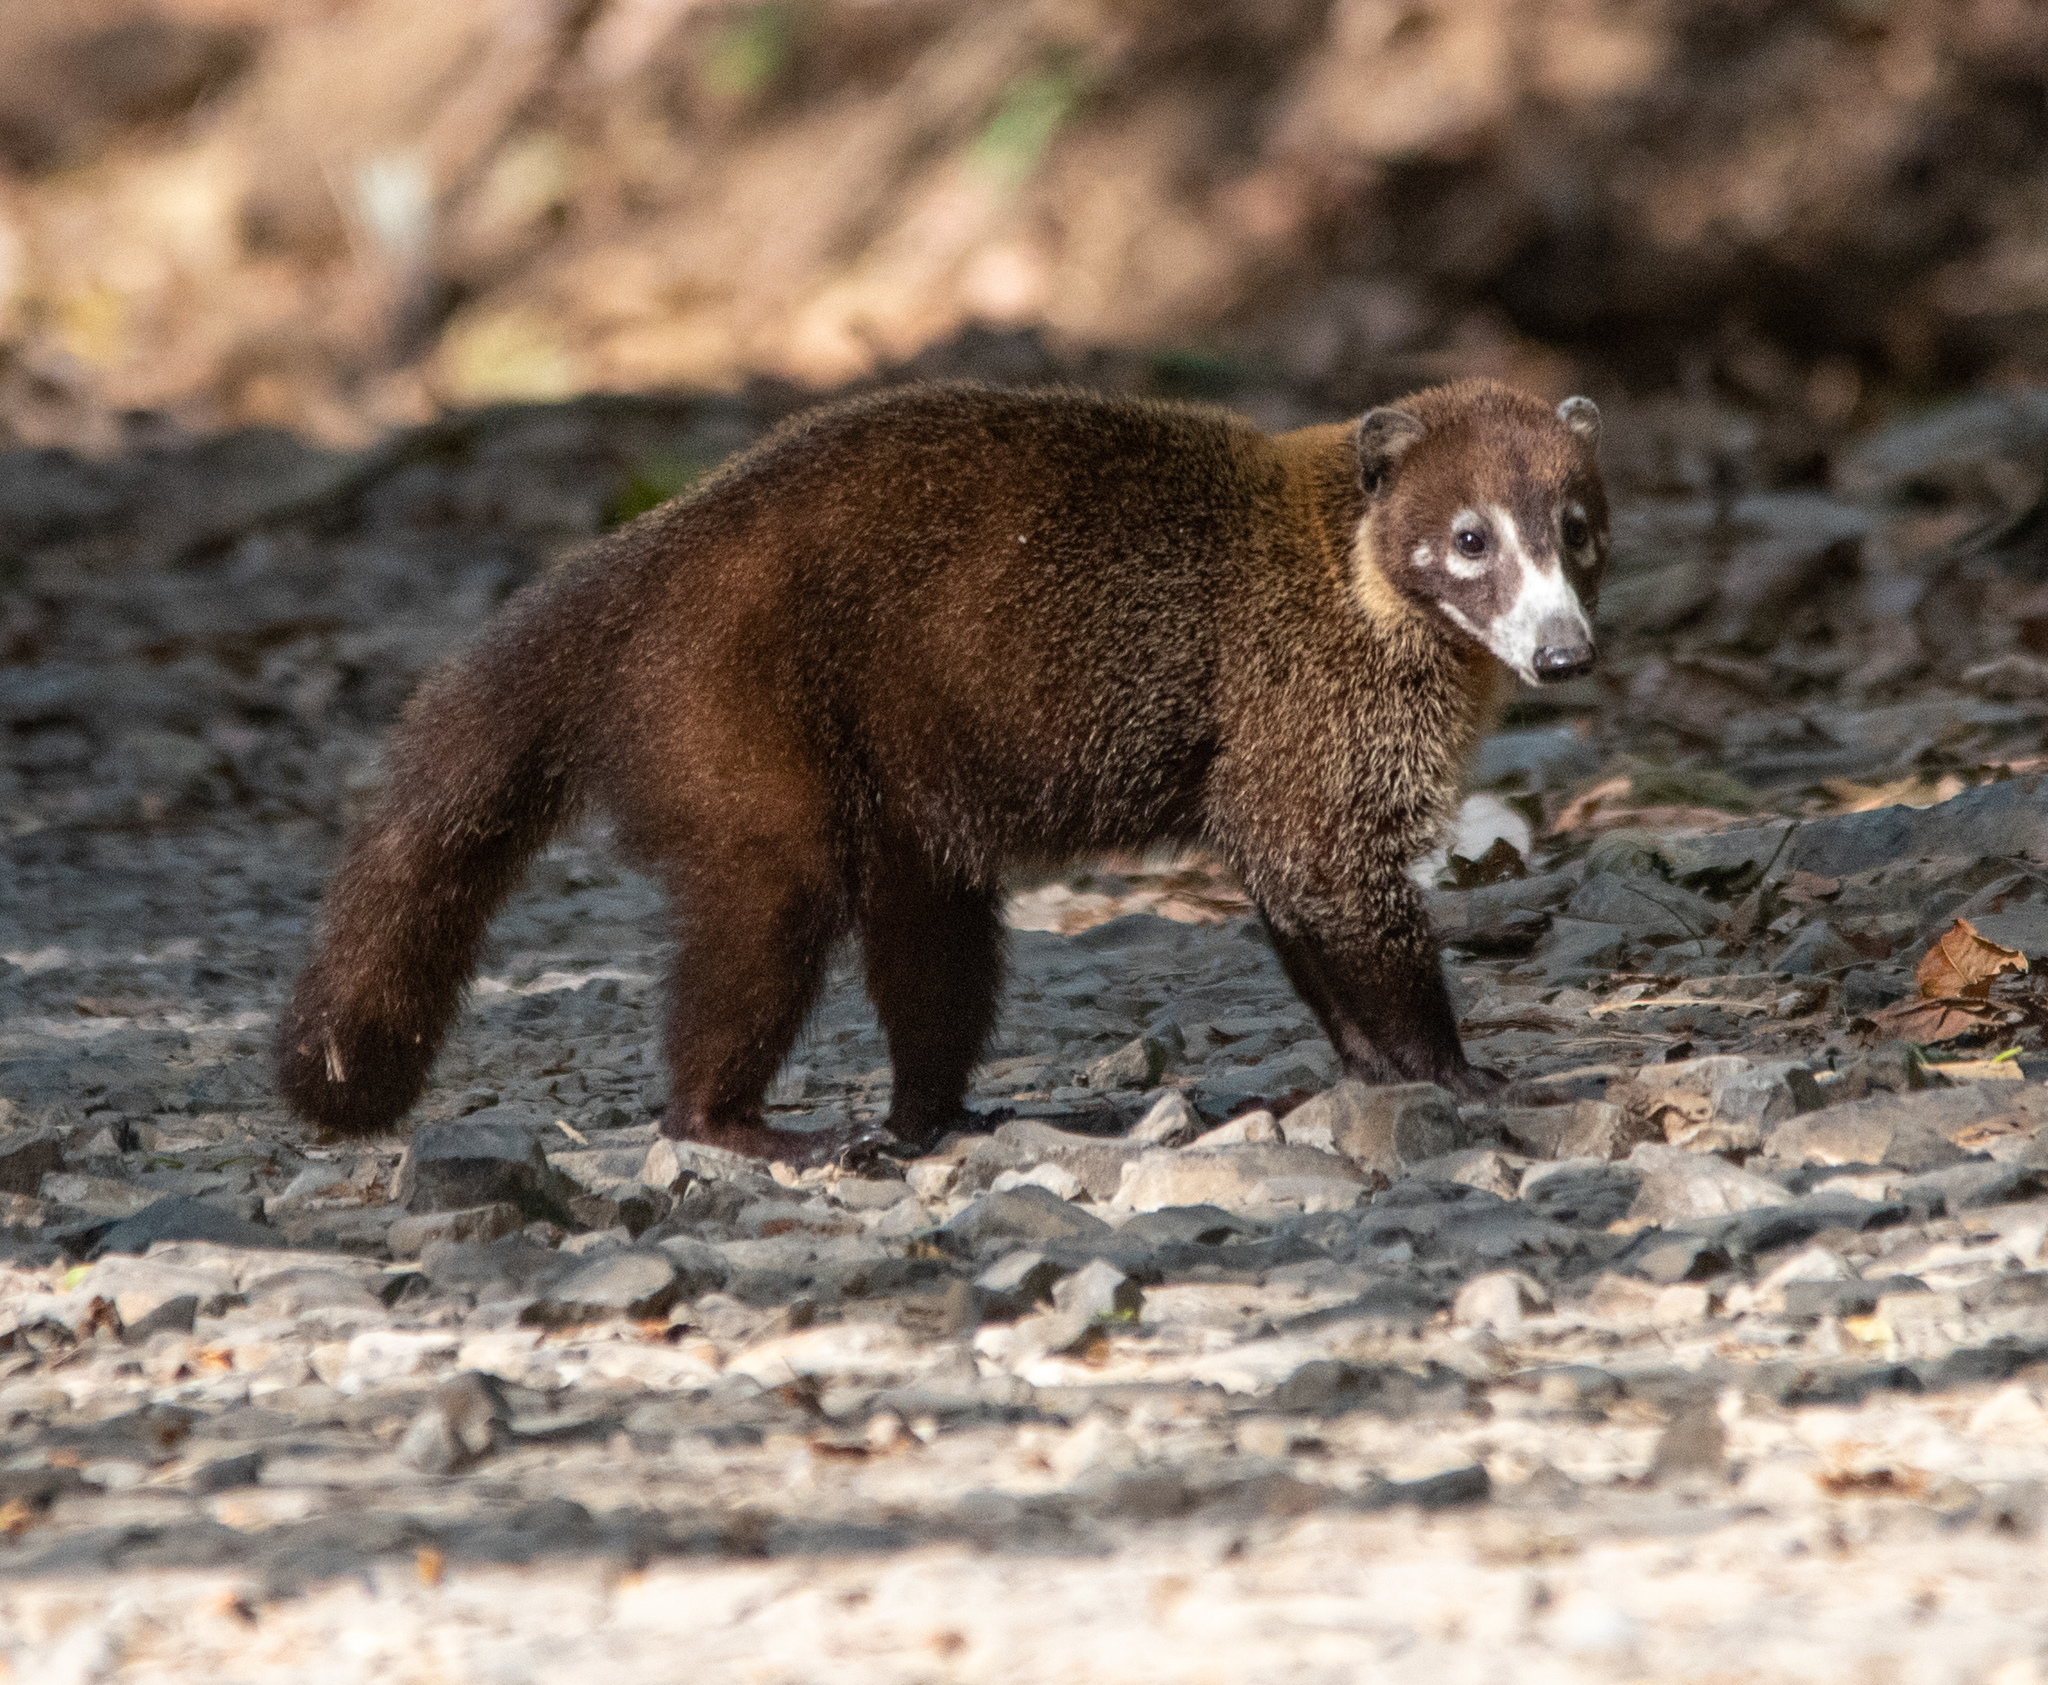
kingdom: Animalia
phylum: Chordata
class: Mammalia
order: Carnivora
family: Procyonidae
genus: Nasua
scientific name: Nasua narica
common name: White-nosed coati
